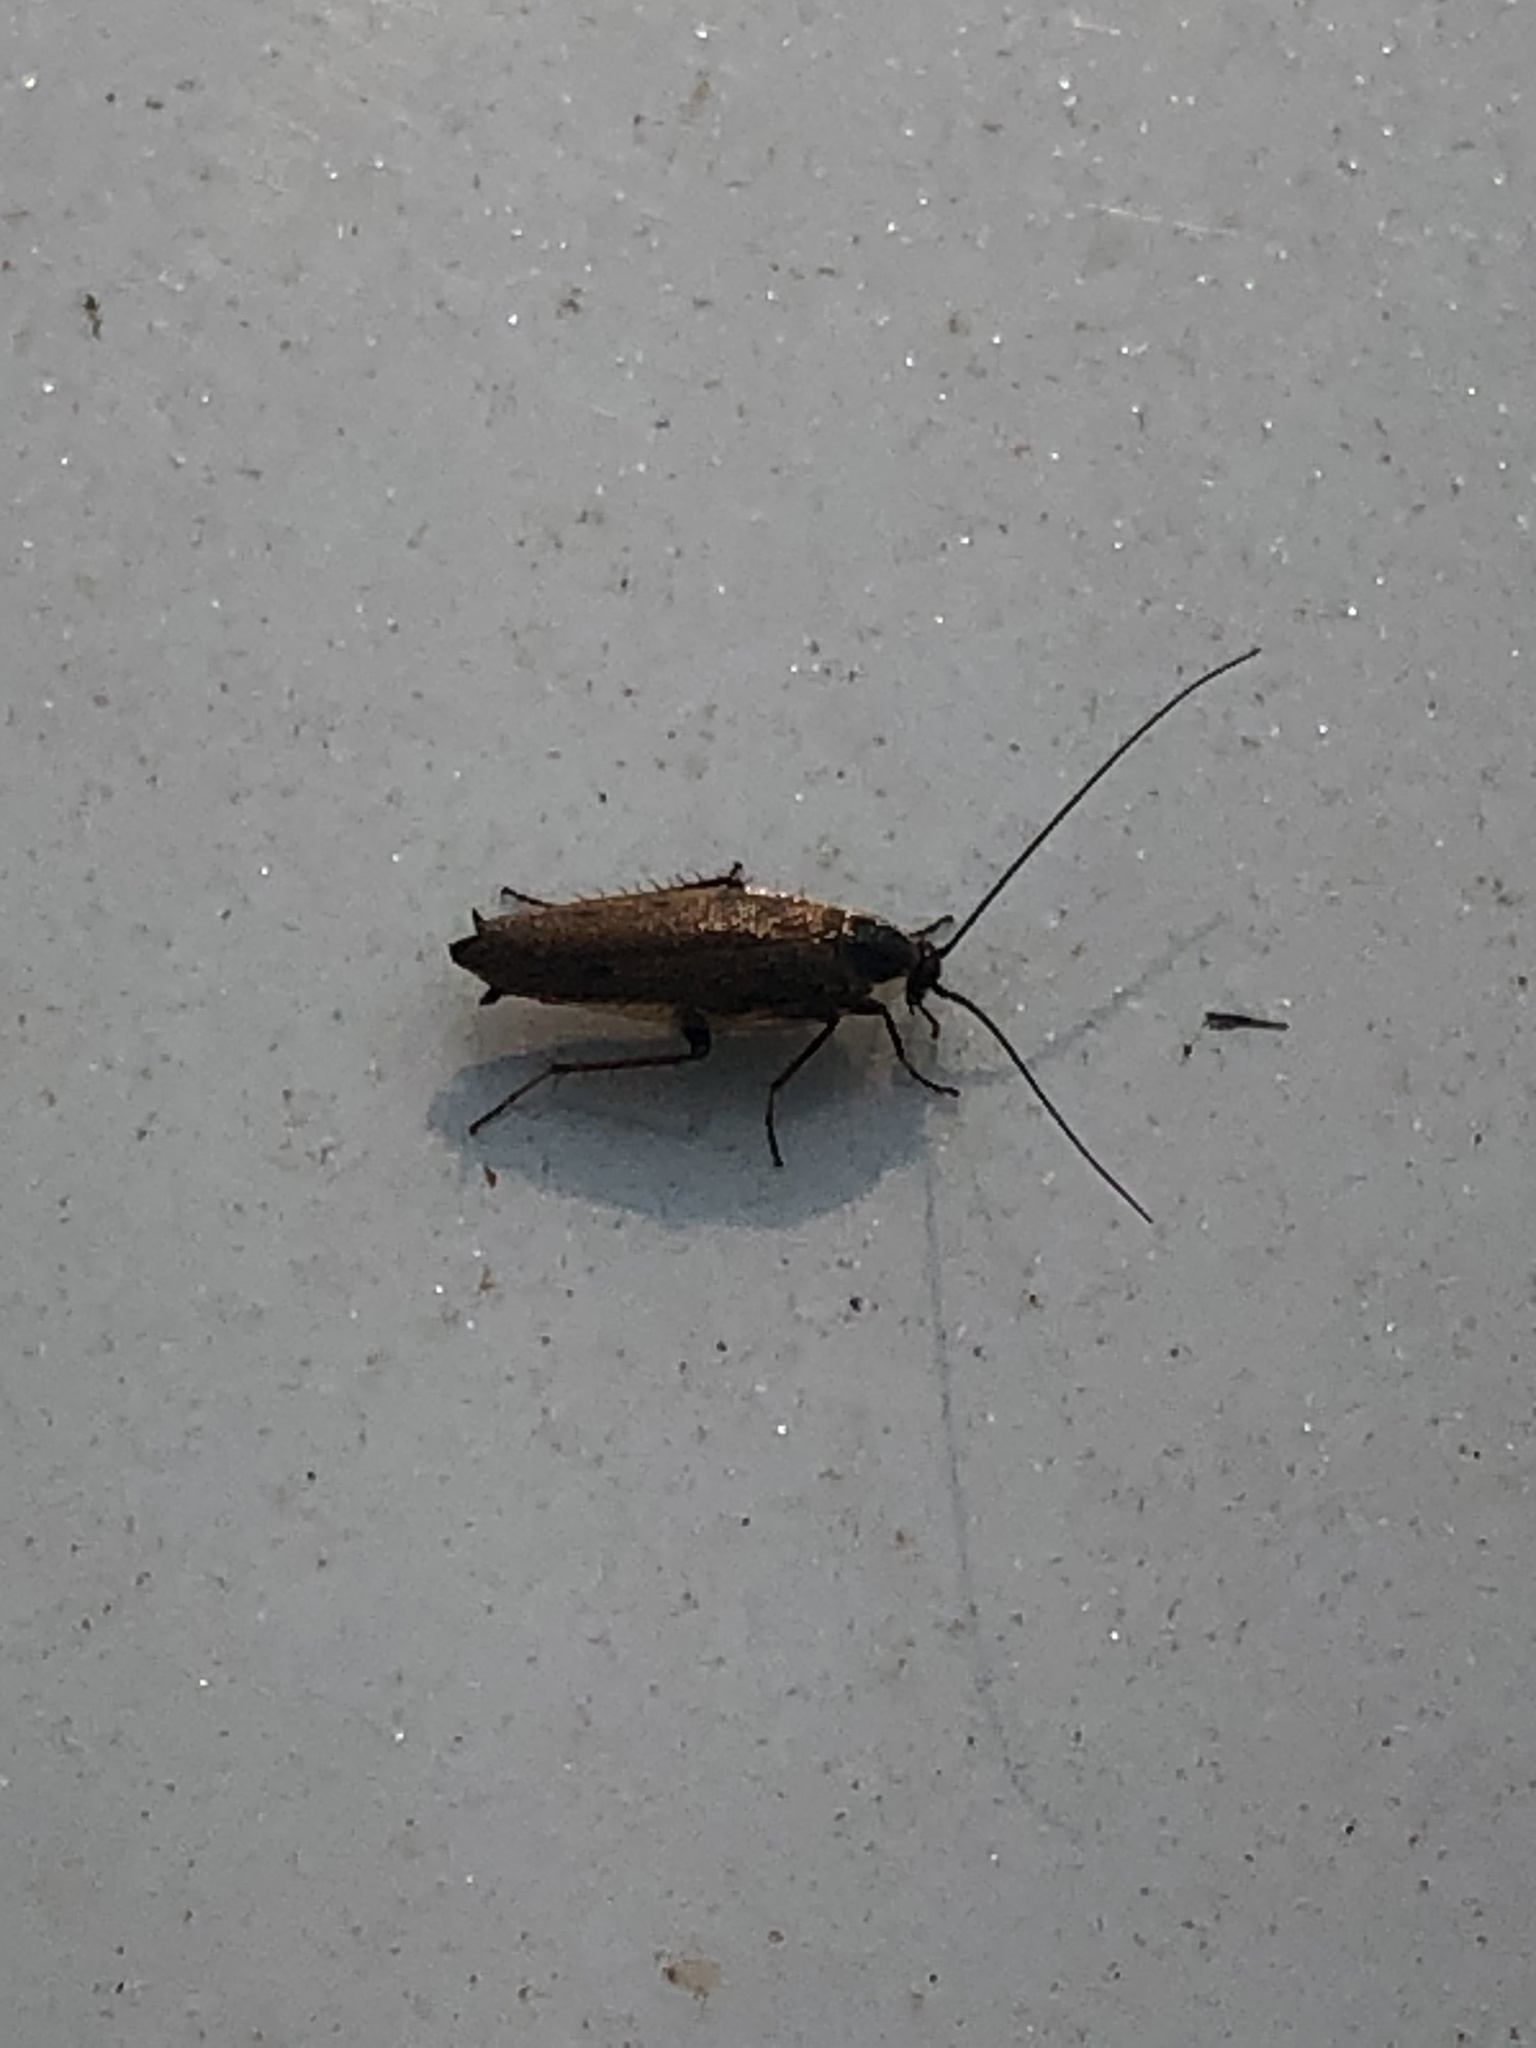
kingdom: Animalia
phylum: Arthropoda
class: Insecta
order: Blattodea
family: Ectobiidae
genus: Ectobius
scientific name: Ectobius lapponicus
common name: Dusky cockroach
